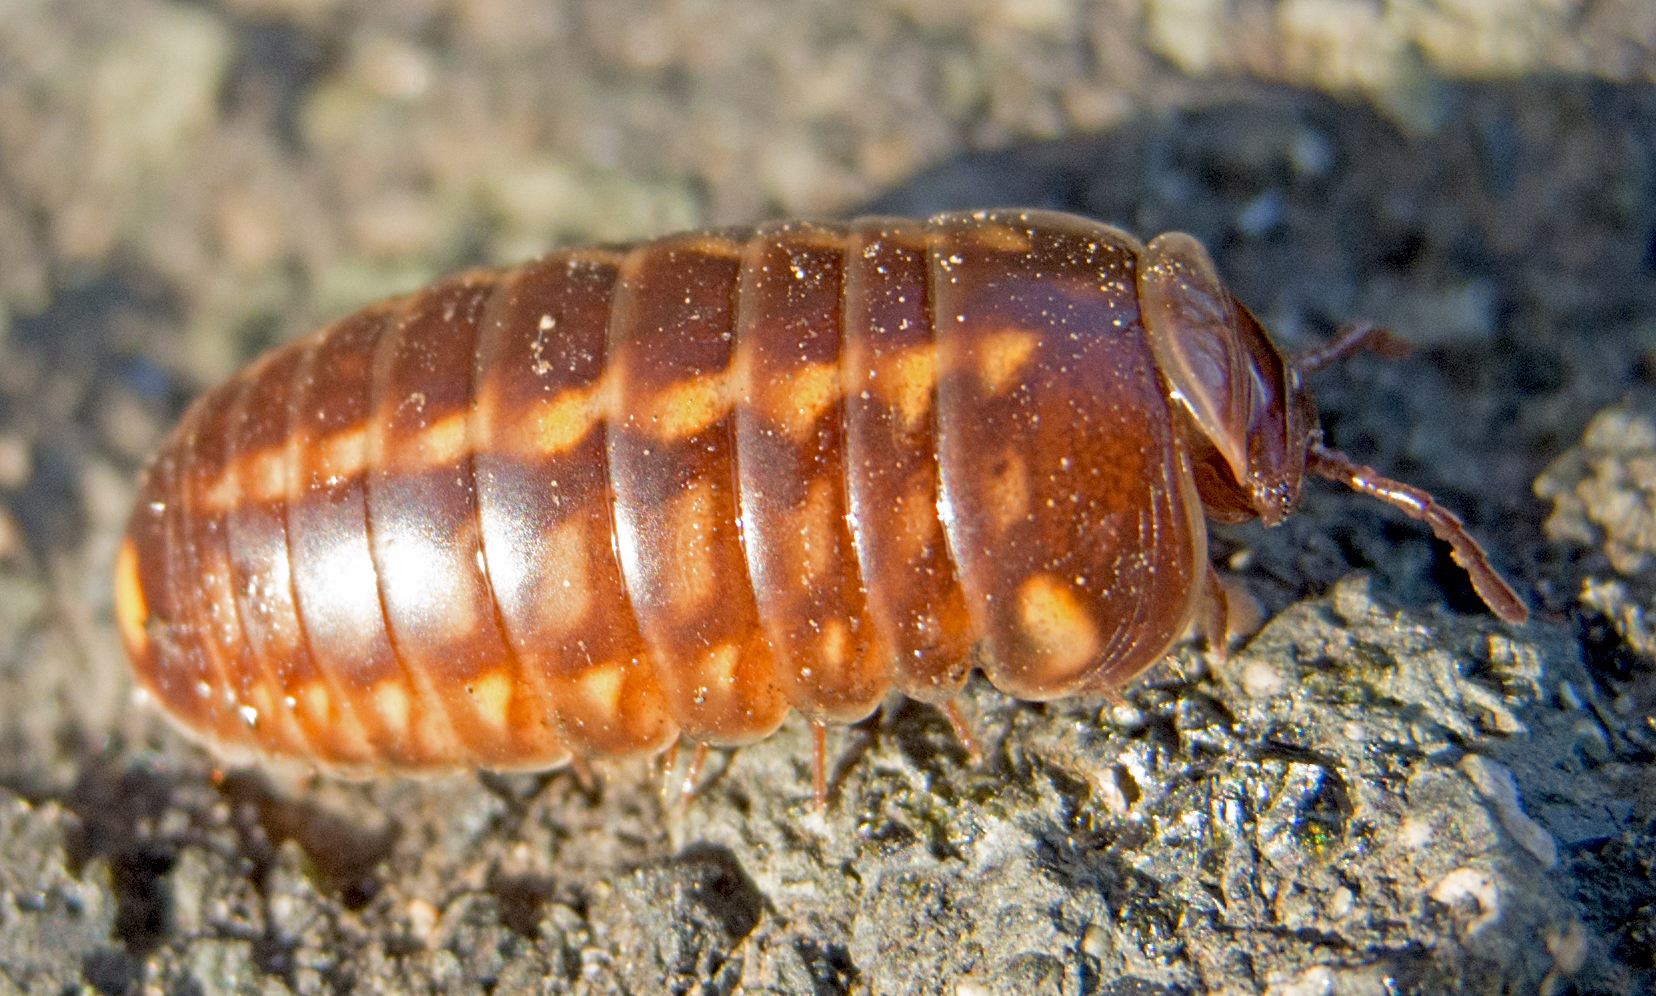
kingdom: Animalia
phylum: Arthropoda
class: Diplopoda
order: Glomerida
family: Glomeridae
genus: Glomeris
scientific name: Glomeris hexasticha
